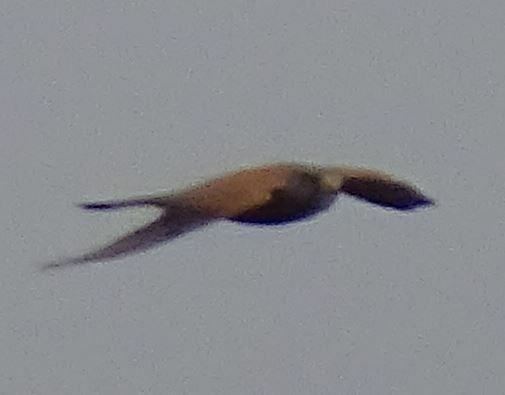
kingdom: Animalia
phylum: Chordata
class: Aves
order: Falconiformes
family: Falconidae
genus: Falco
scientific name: Falco tinnunculus
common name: Common kestrel
